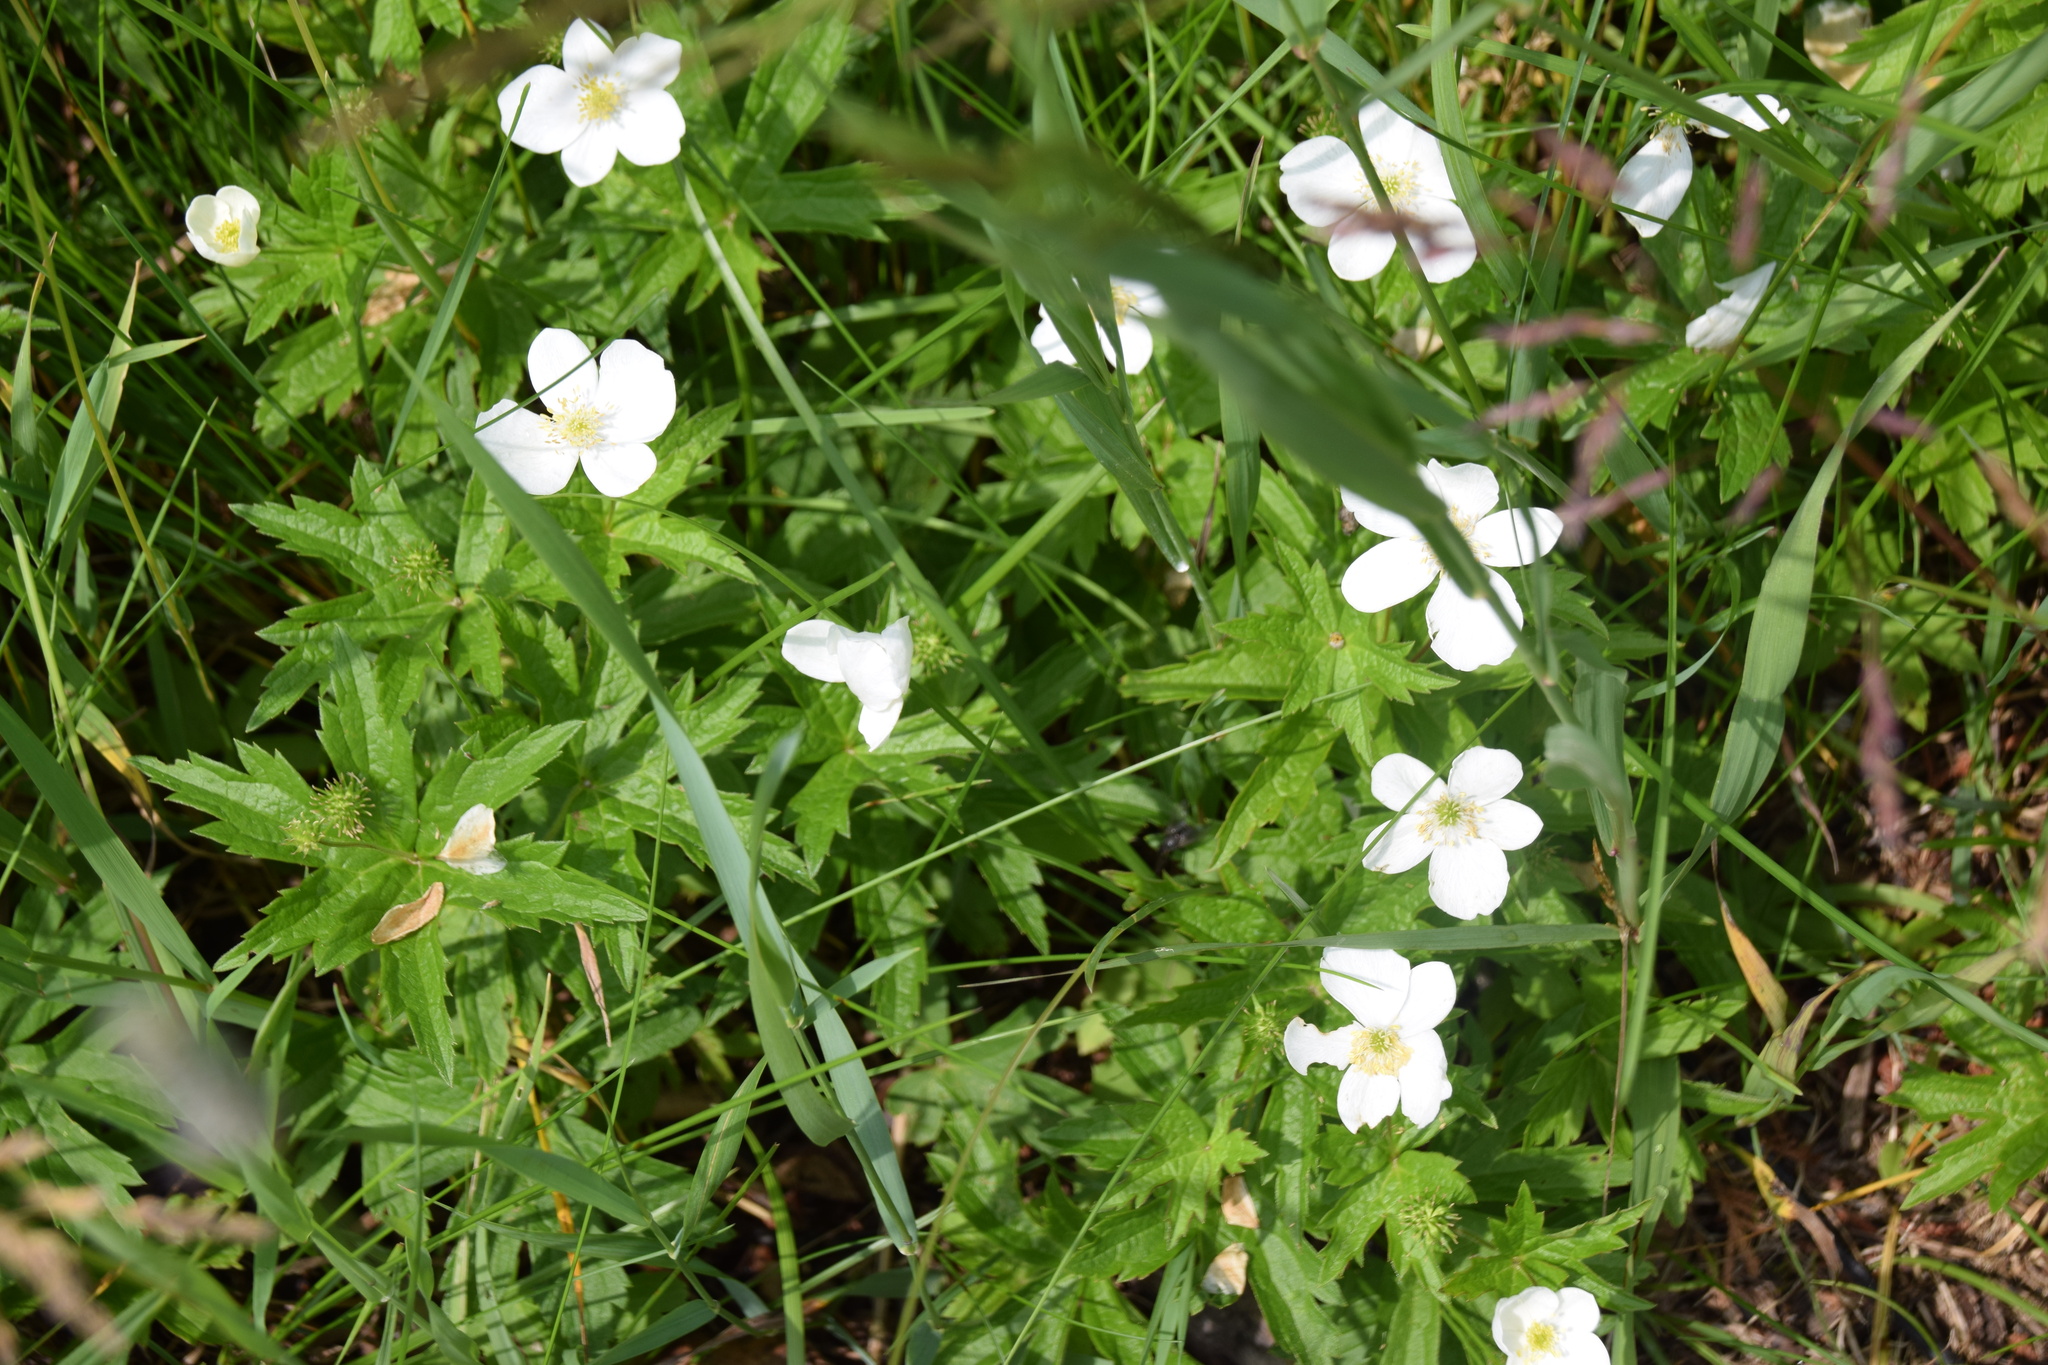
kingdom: Plantae
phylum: Tracheophyta
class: Magnoliopsida
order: Ranunculales
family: Ranunculaceae
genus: Anemonastrum
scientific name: Anemonastrum canadense
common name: Canada anemone
